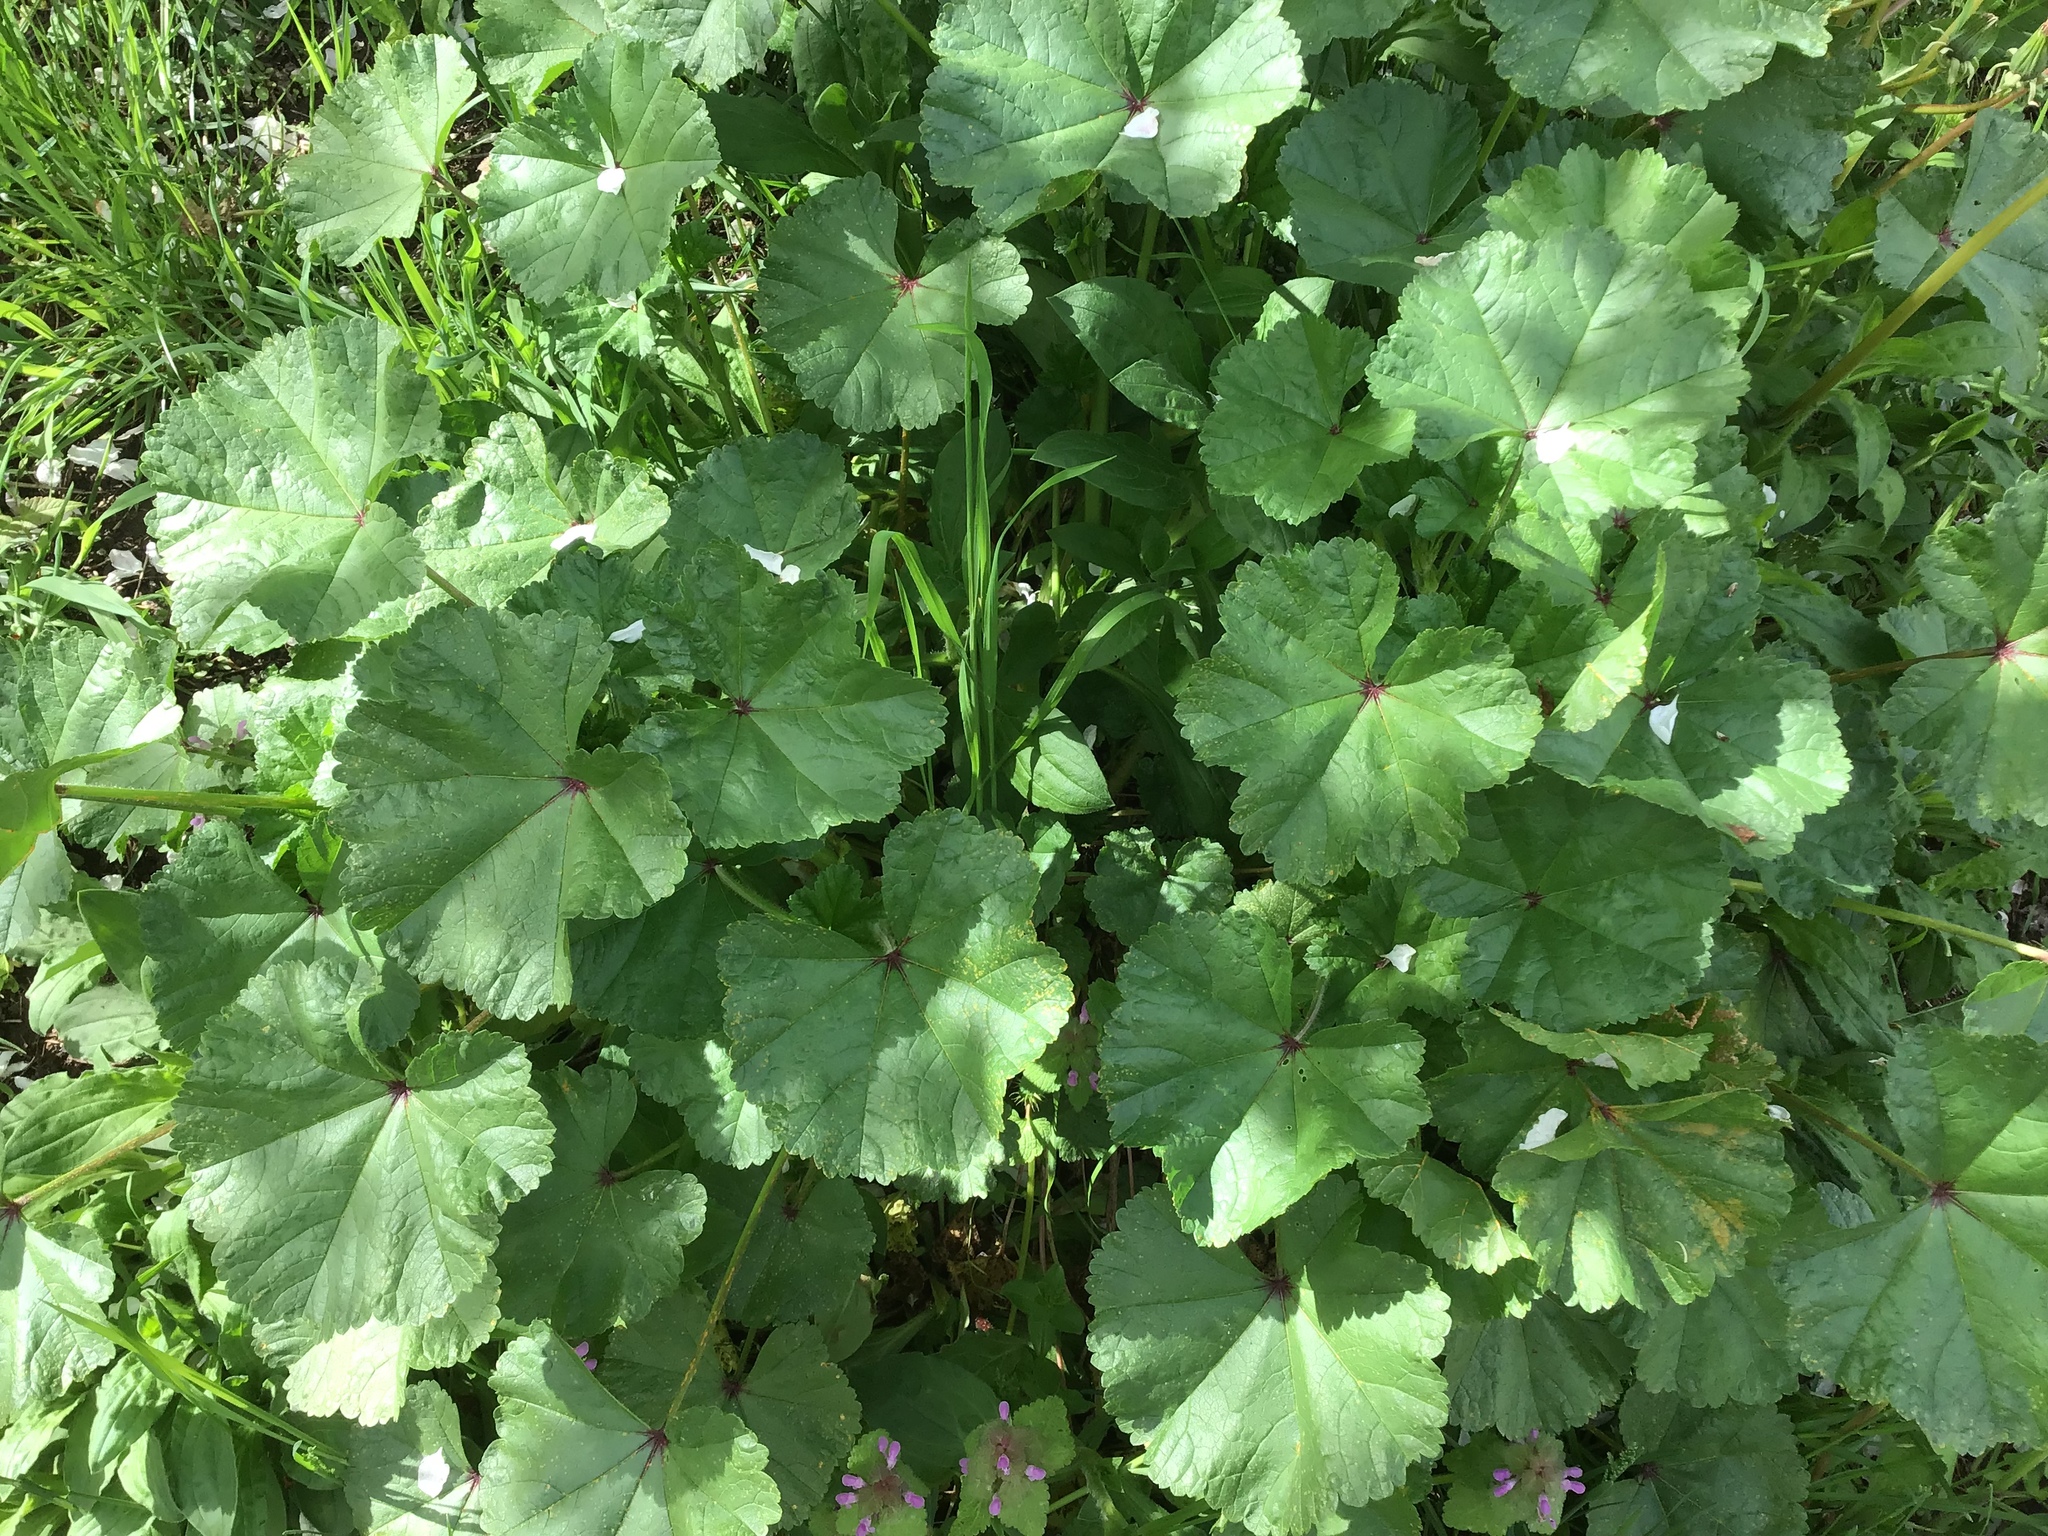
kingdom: Plantae
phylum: Tracheophyta
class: Magnoliopsida
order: Malvales
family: Malvaceae
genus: Malva
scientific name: Malva sylvestris
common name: Common mallow
